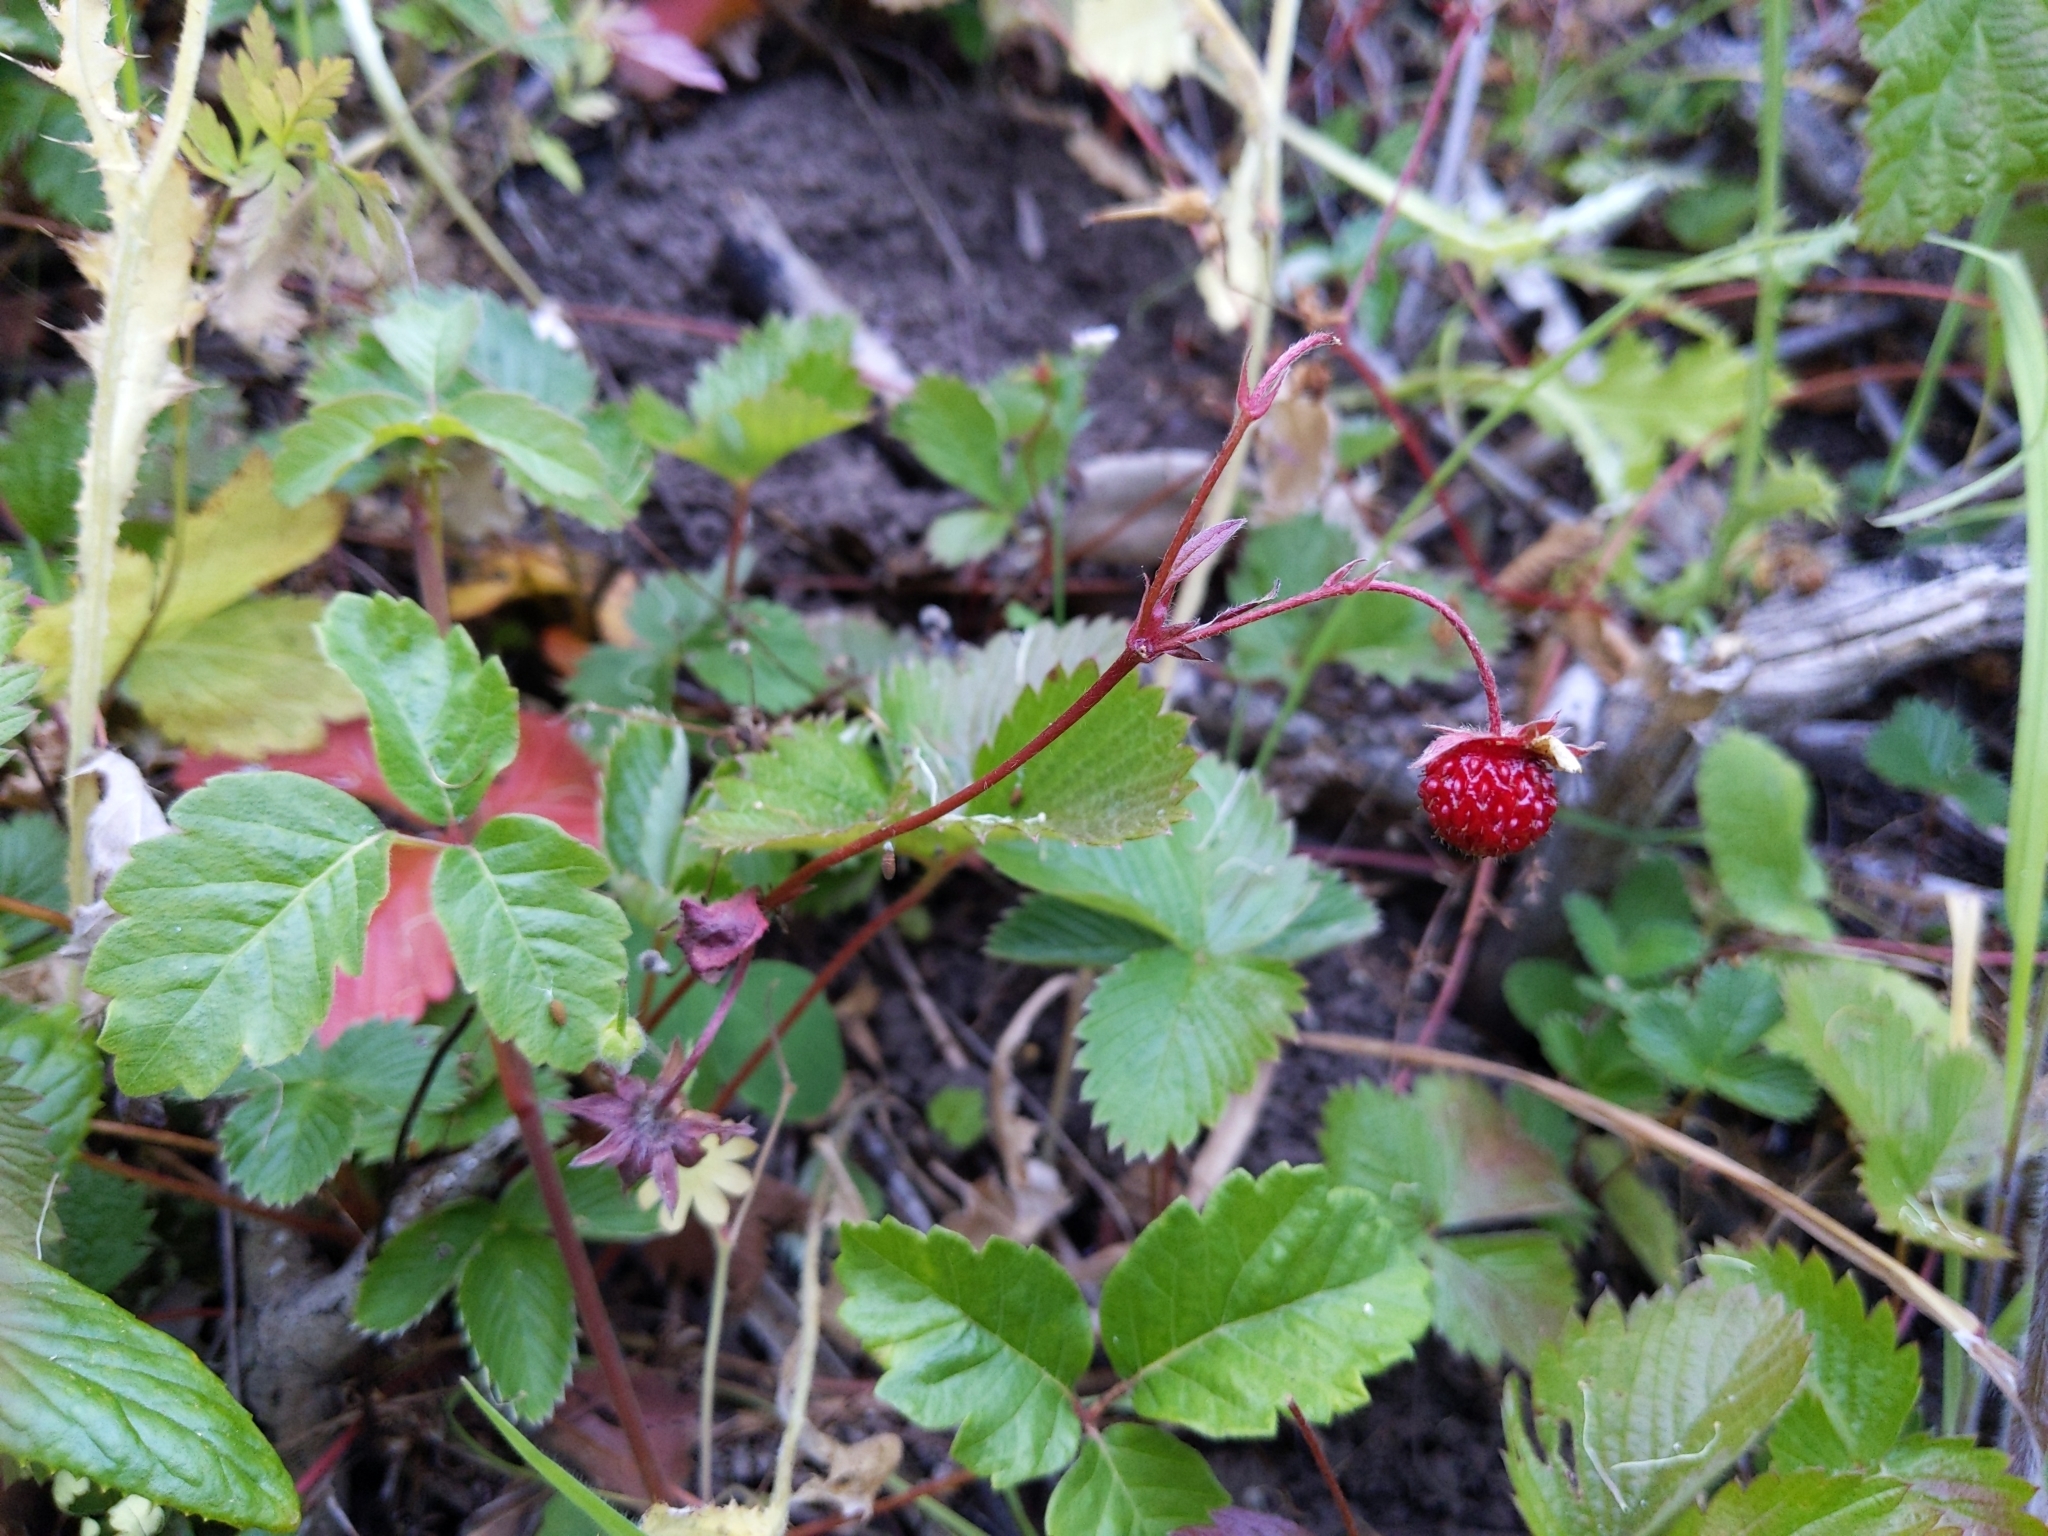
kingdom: Plantae
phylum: Tracheophyta
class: Magnoliopsida
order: Rosales
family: Rosaceae
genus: Fragaria
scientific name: Fragaria vesca
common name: Wild strawberry
